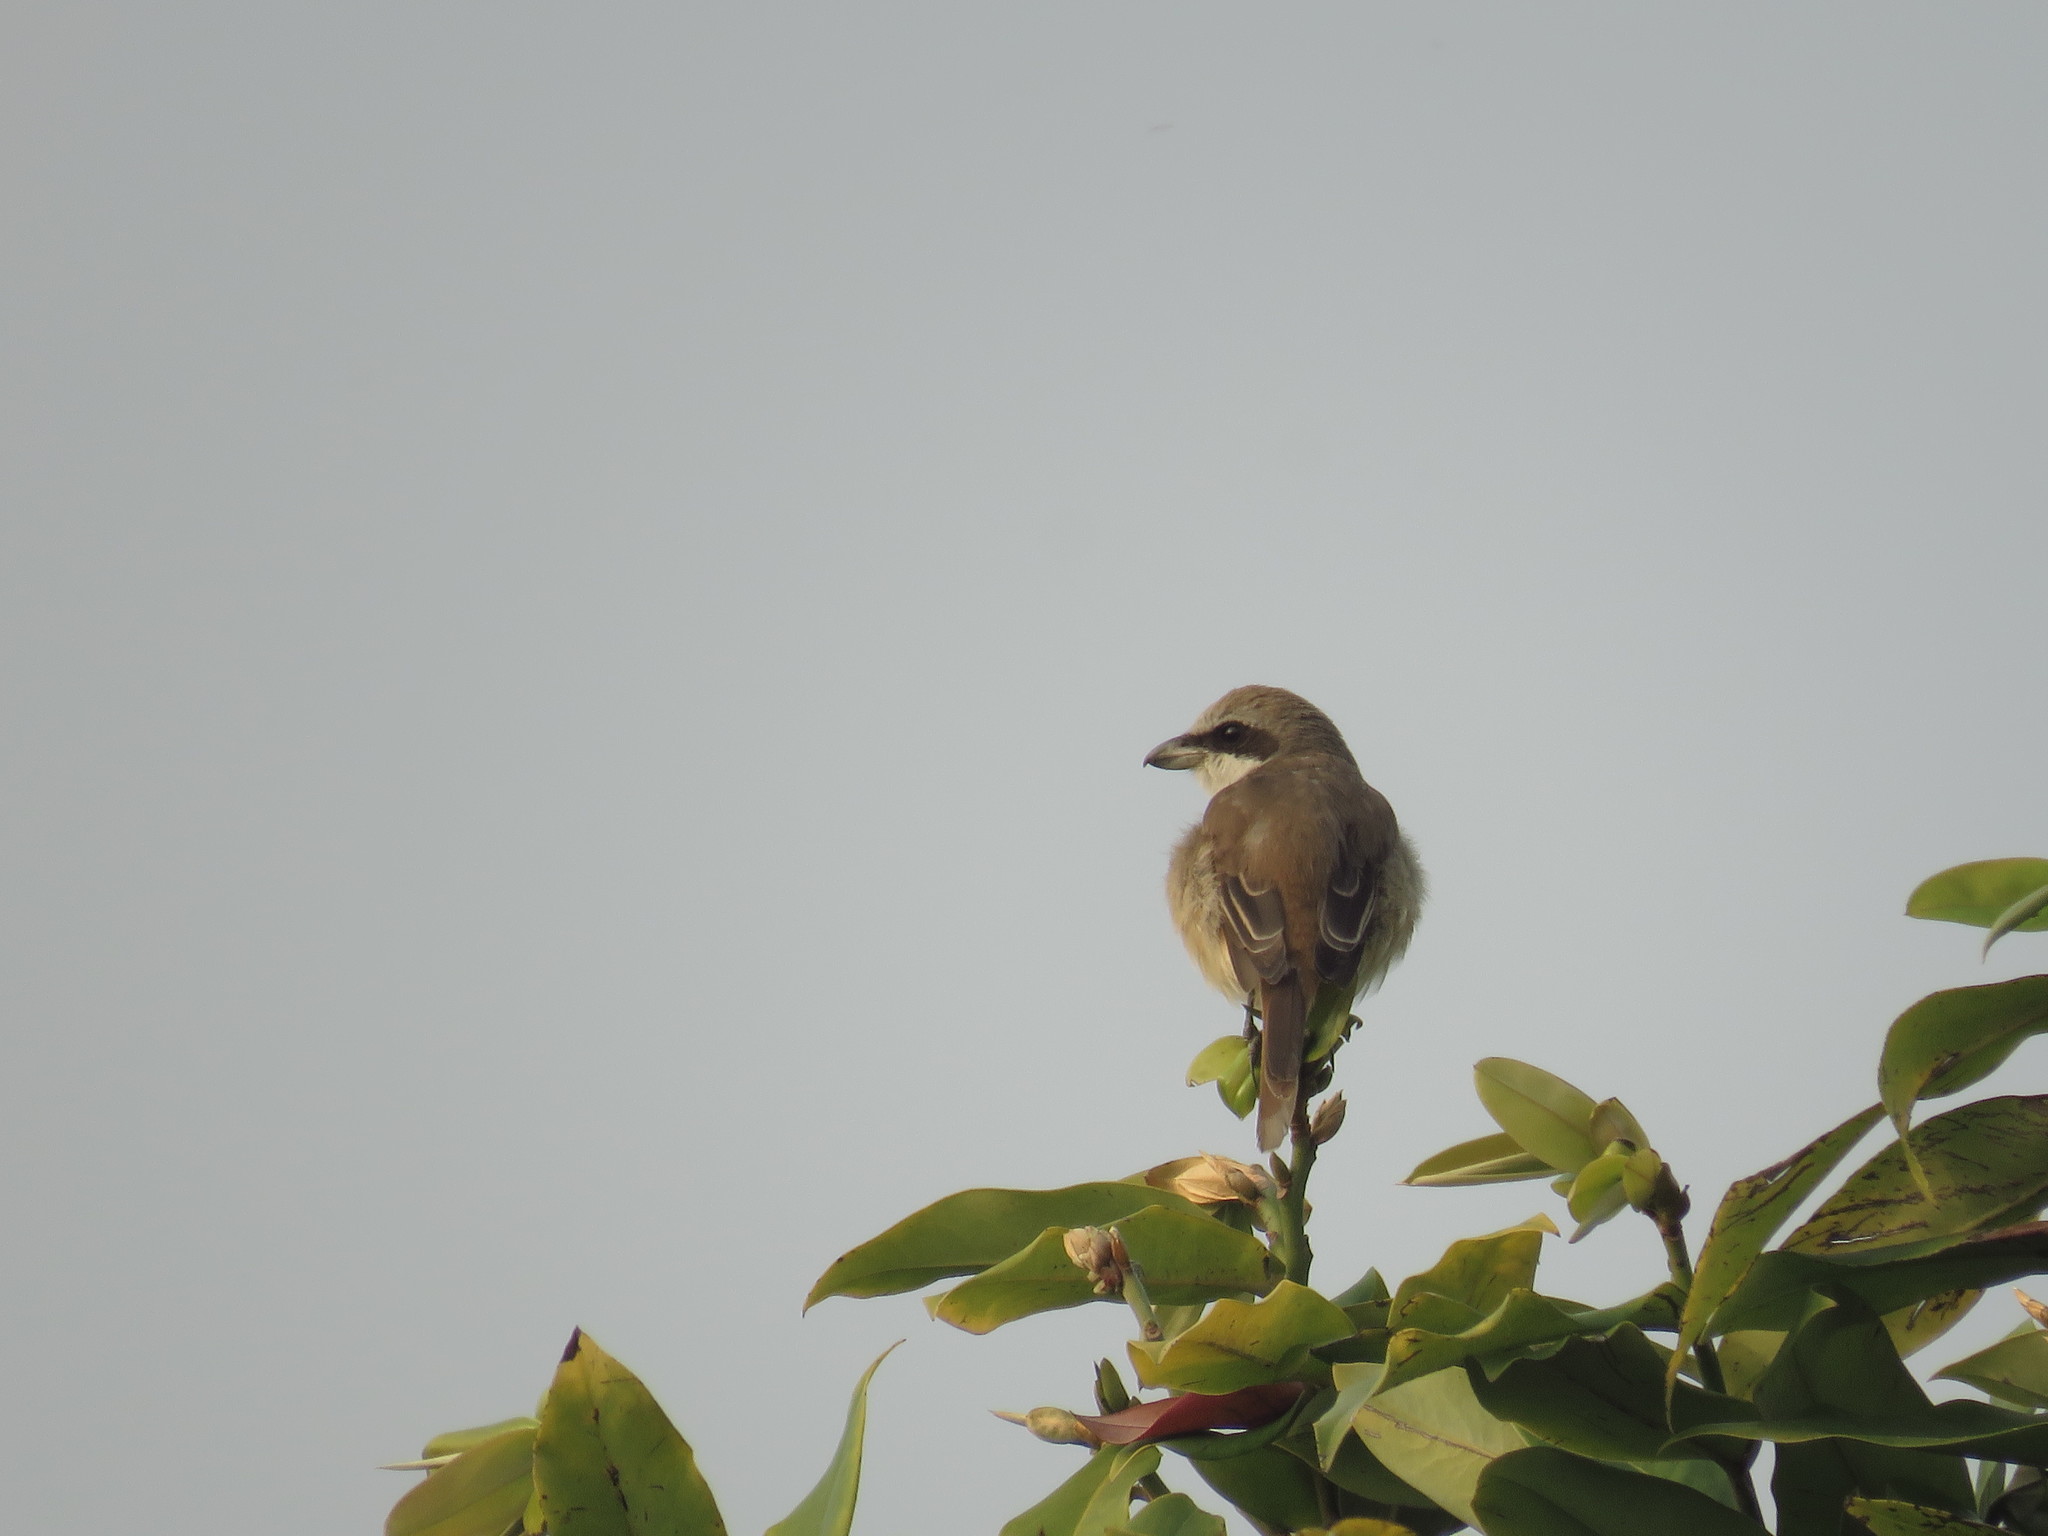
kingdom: Animalia
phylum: Chordata
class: Aves
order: Passeriformes
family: Laniidae
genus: Lanius
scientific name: Lanius cristatus
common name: Brown shrike
